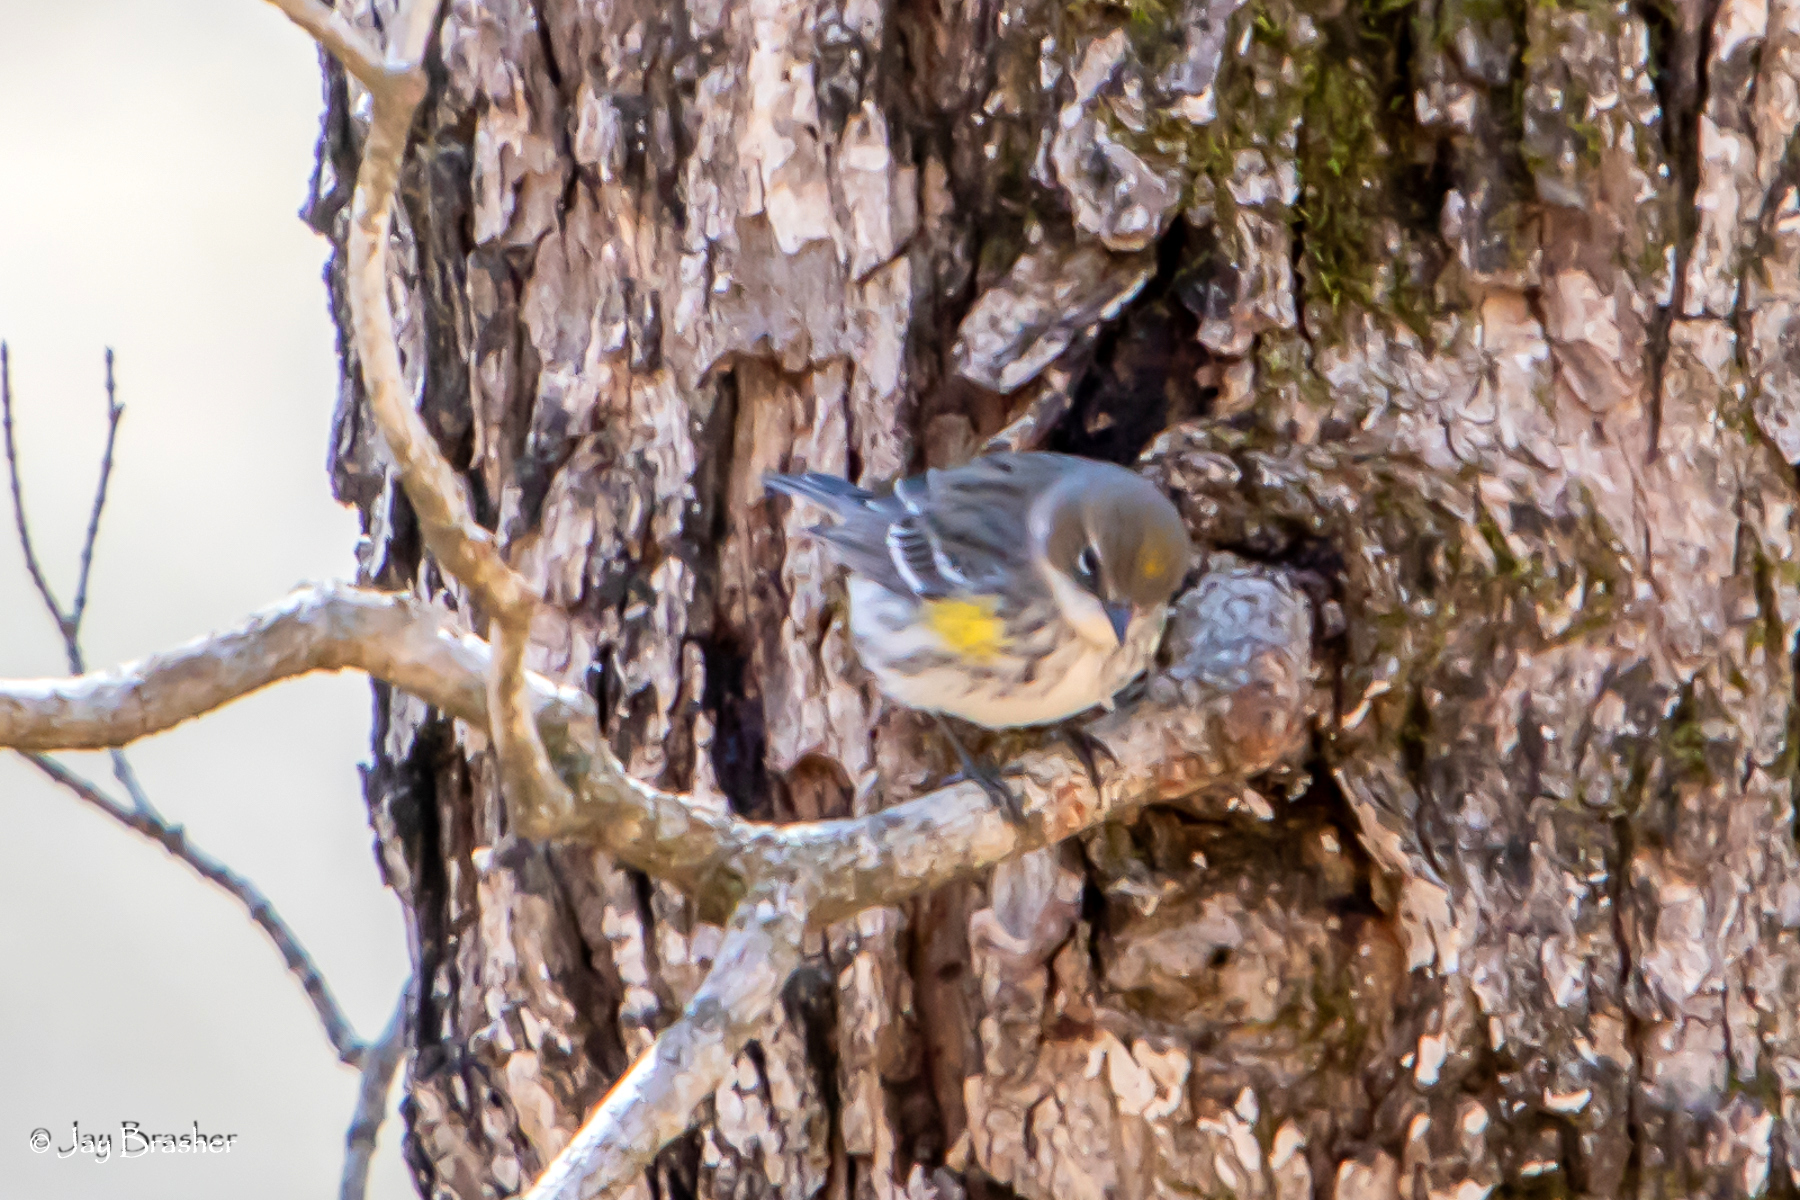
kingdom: Animalia
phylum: Chordata
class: Aves
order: Passeriformes
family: Parulidae
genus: Setophaga
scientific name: Setophaga coronata
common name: Myrtle warbler
